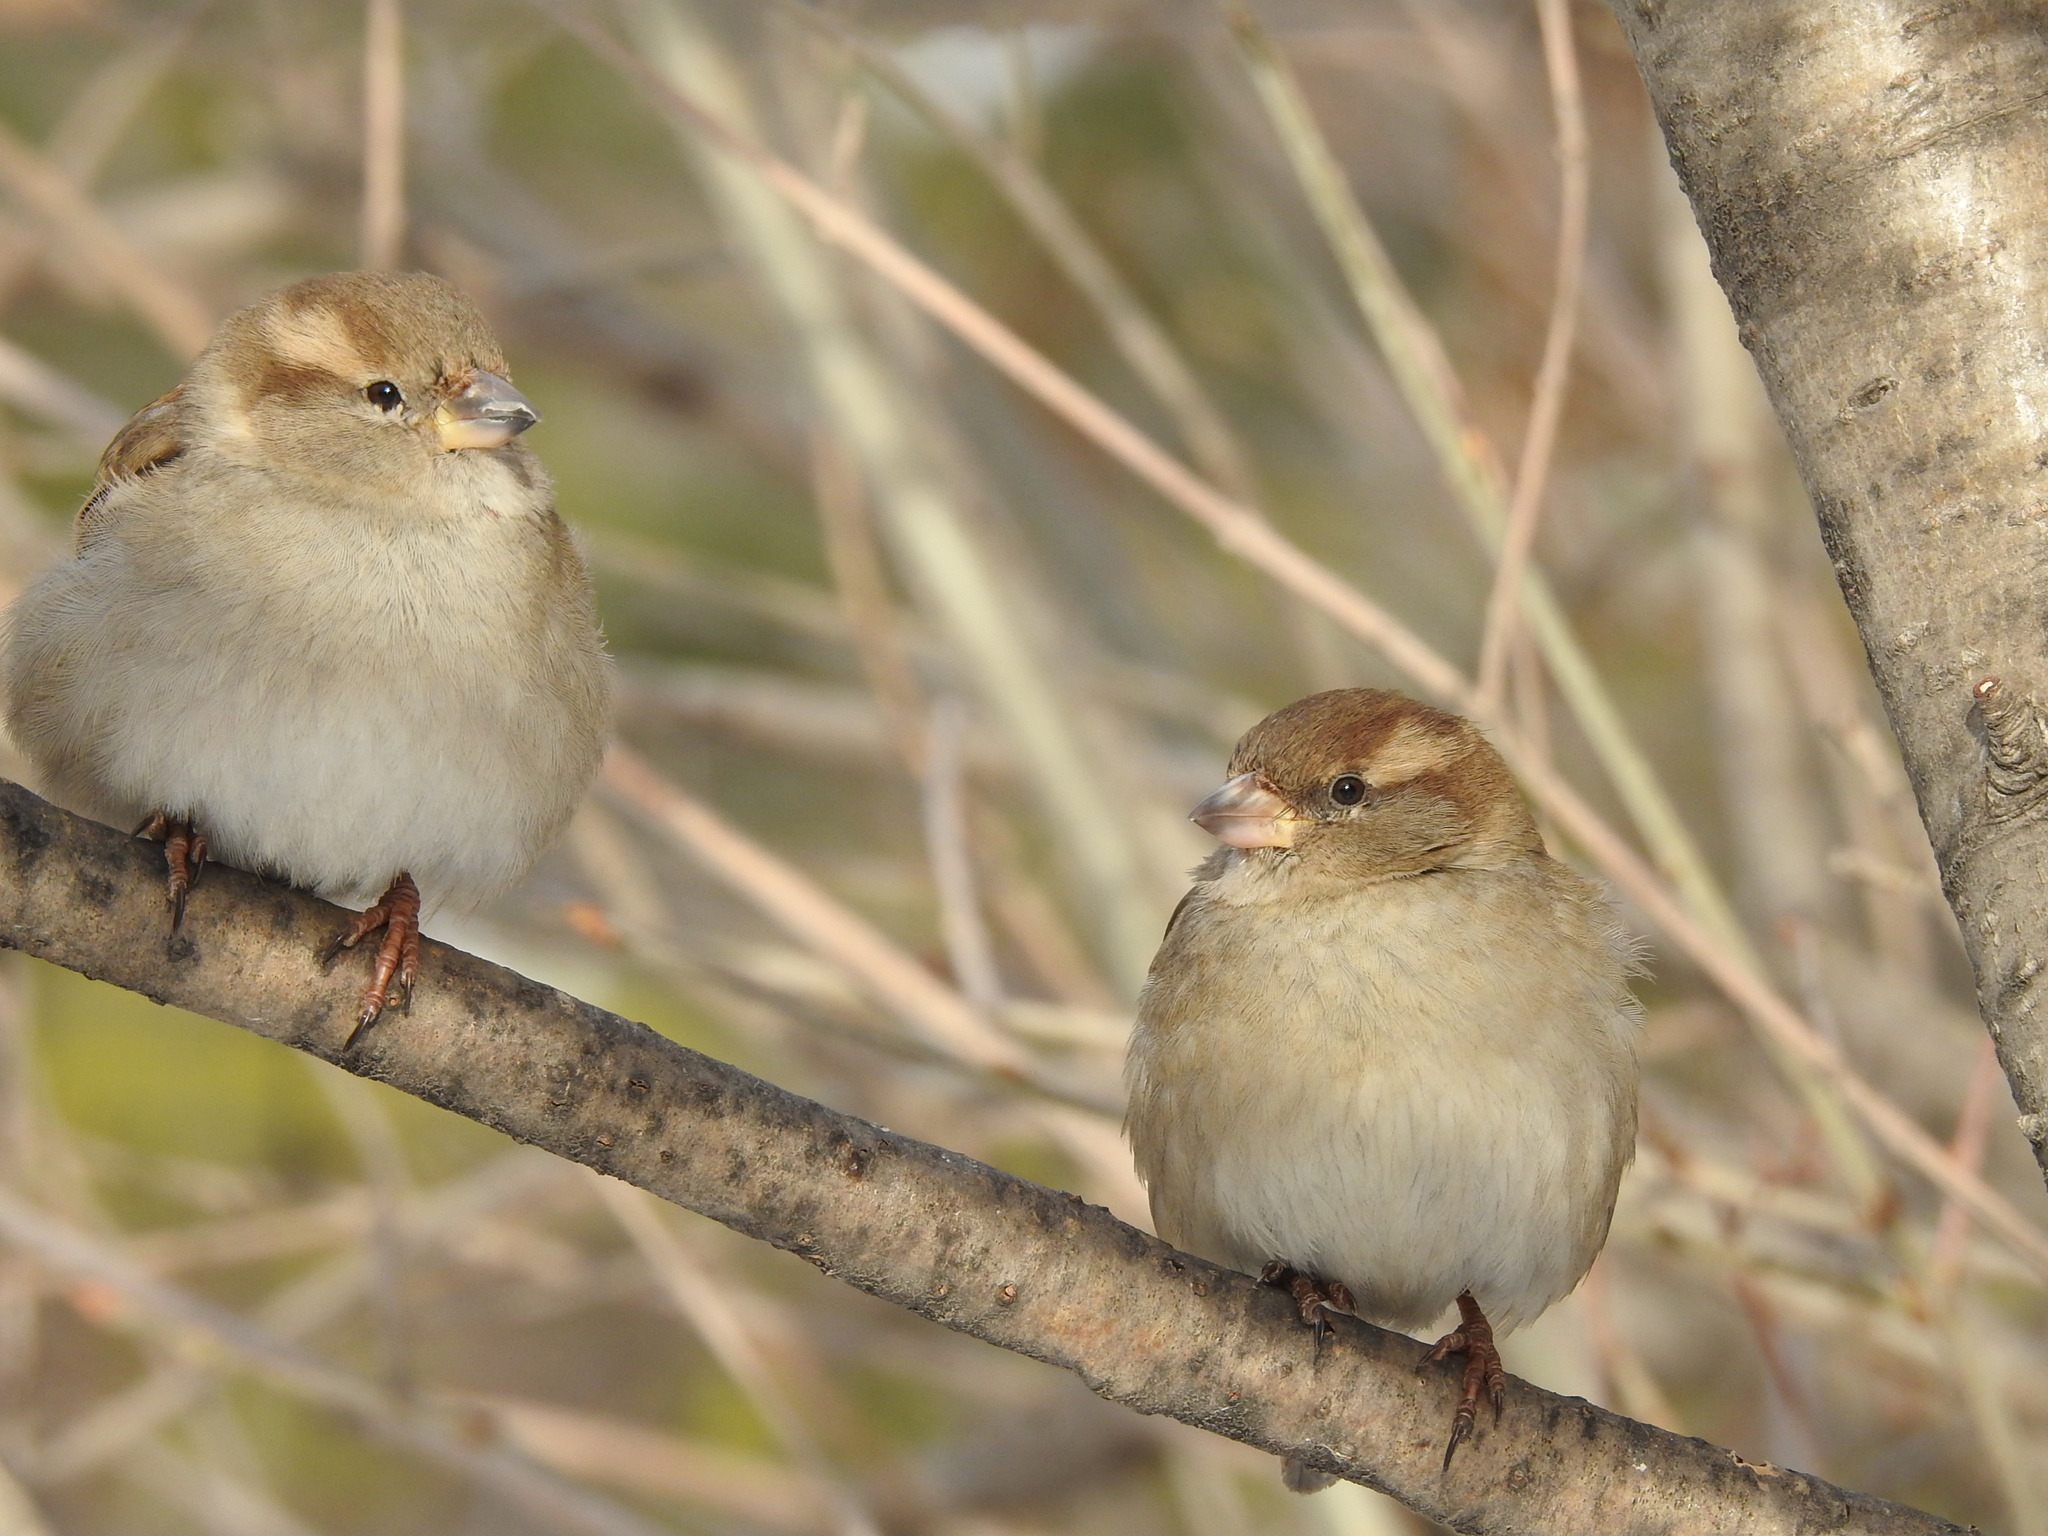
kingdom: Animalia
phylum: Chordata
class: Aves
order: Passeriformes
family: Passeridae
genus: Passer
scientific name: Passer domesticus
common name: House sparrow
